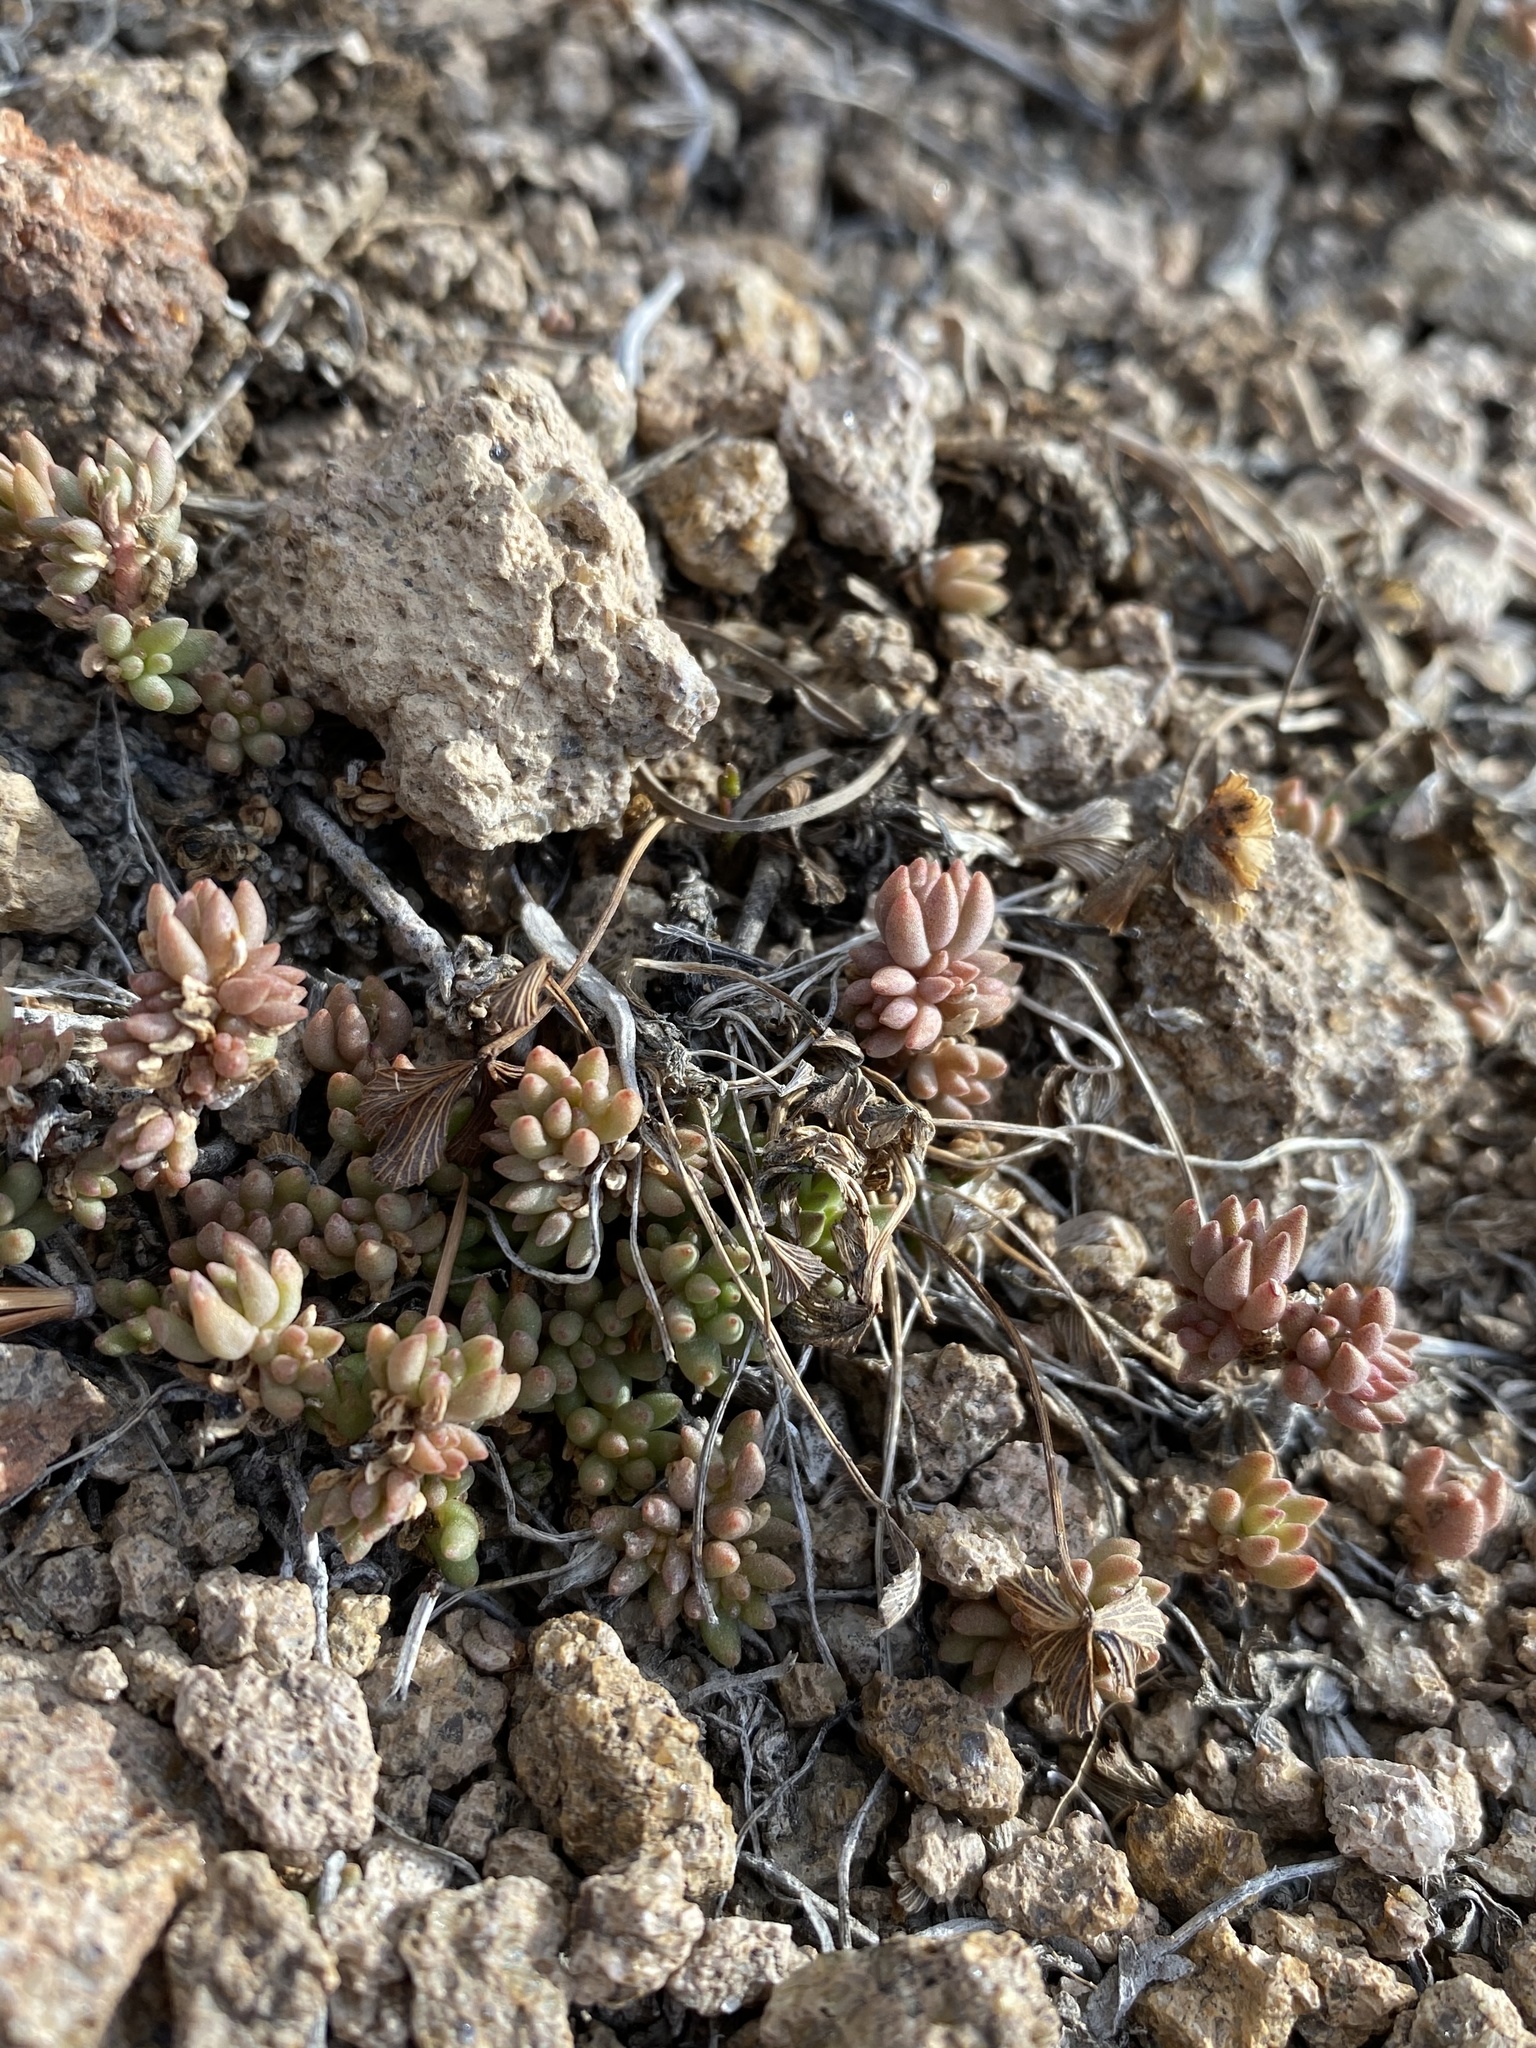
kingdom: Plantae
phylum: Tracheophyta
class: Magnoliopsida
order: Saxifragales
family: Crassulaceae
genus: Sedum
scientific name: Sedum lanceolatum
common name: Common stonecrop
